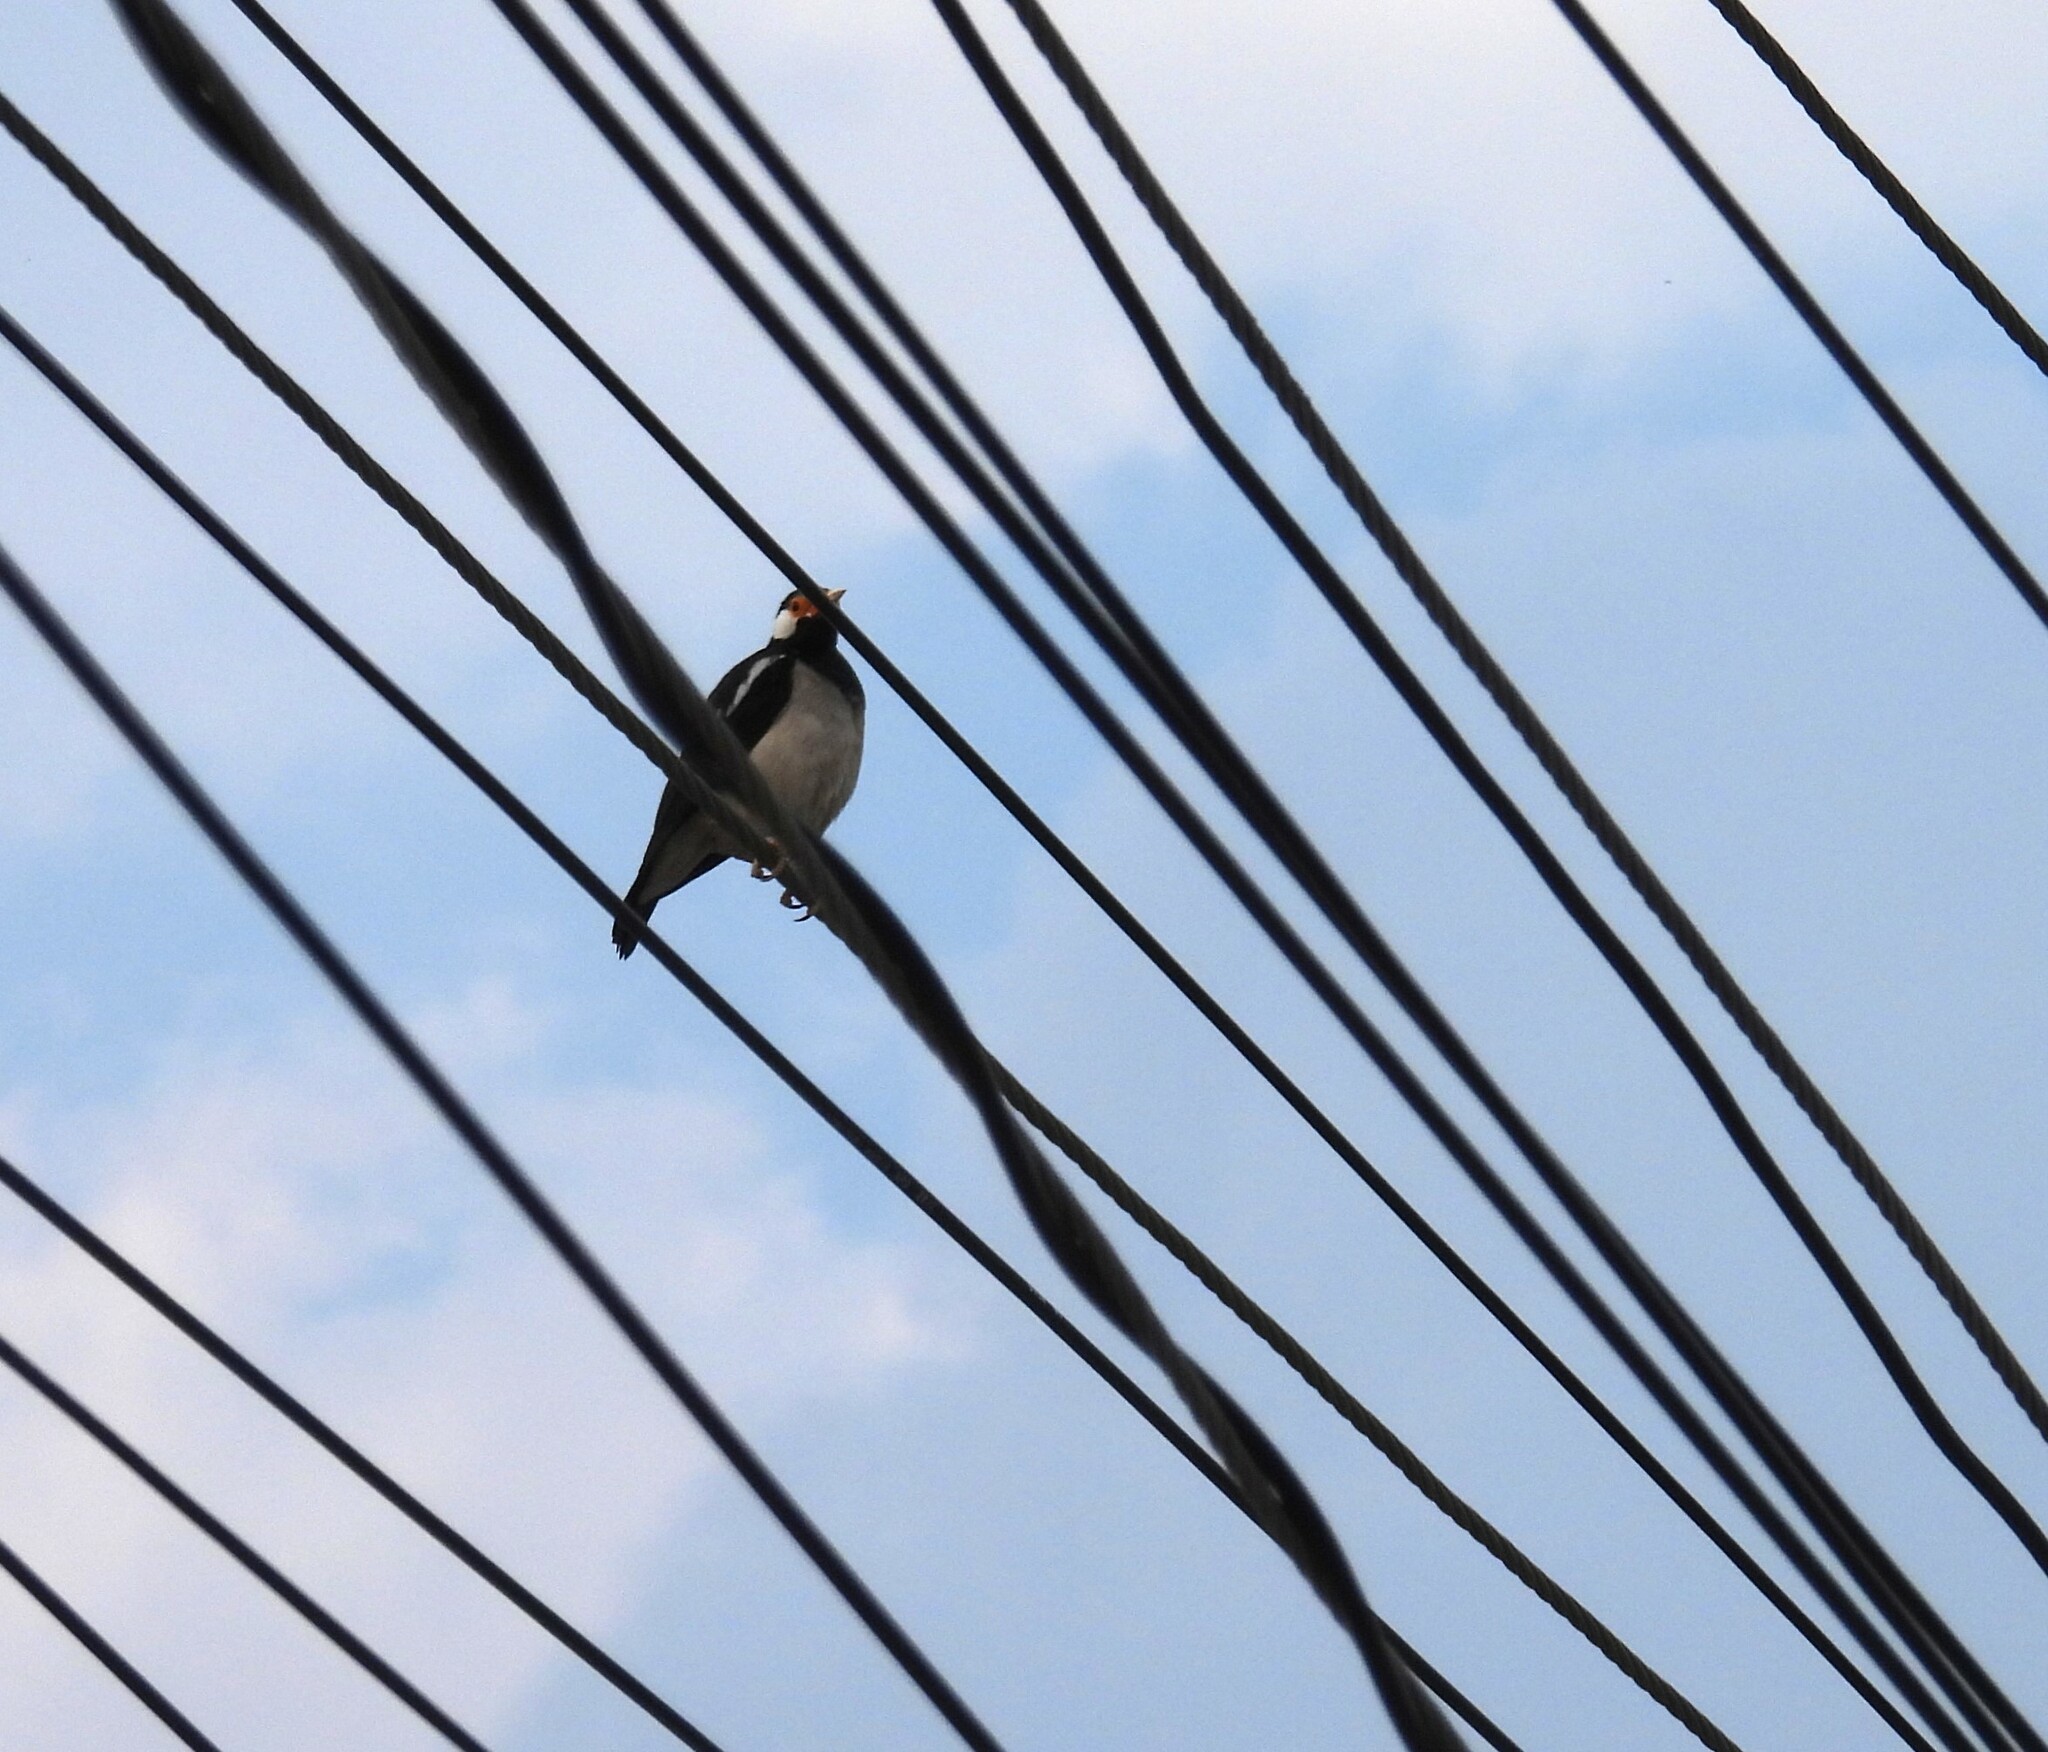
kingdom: Animalia
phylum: Chordata
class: Aves
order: Passeriformes
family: Sturnidae
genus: Gracupica
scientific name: Gracupica contra
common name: Pied myna
